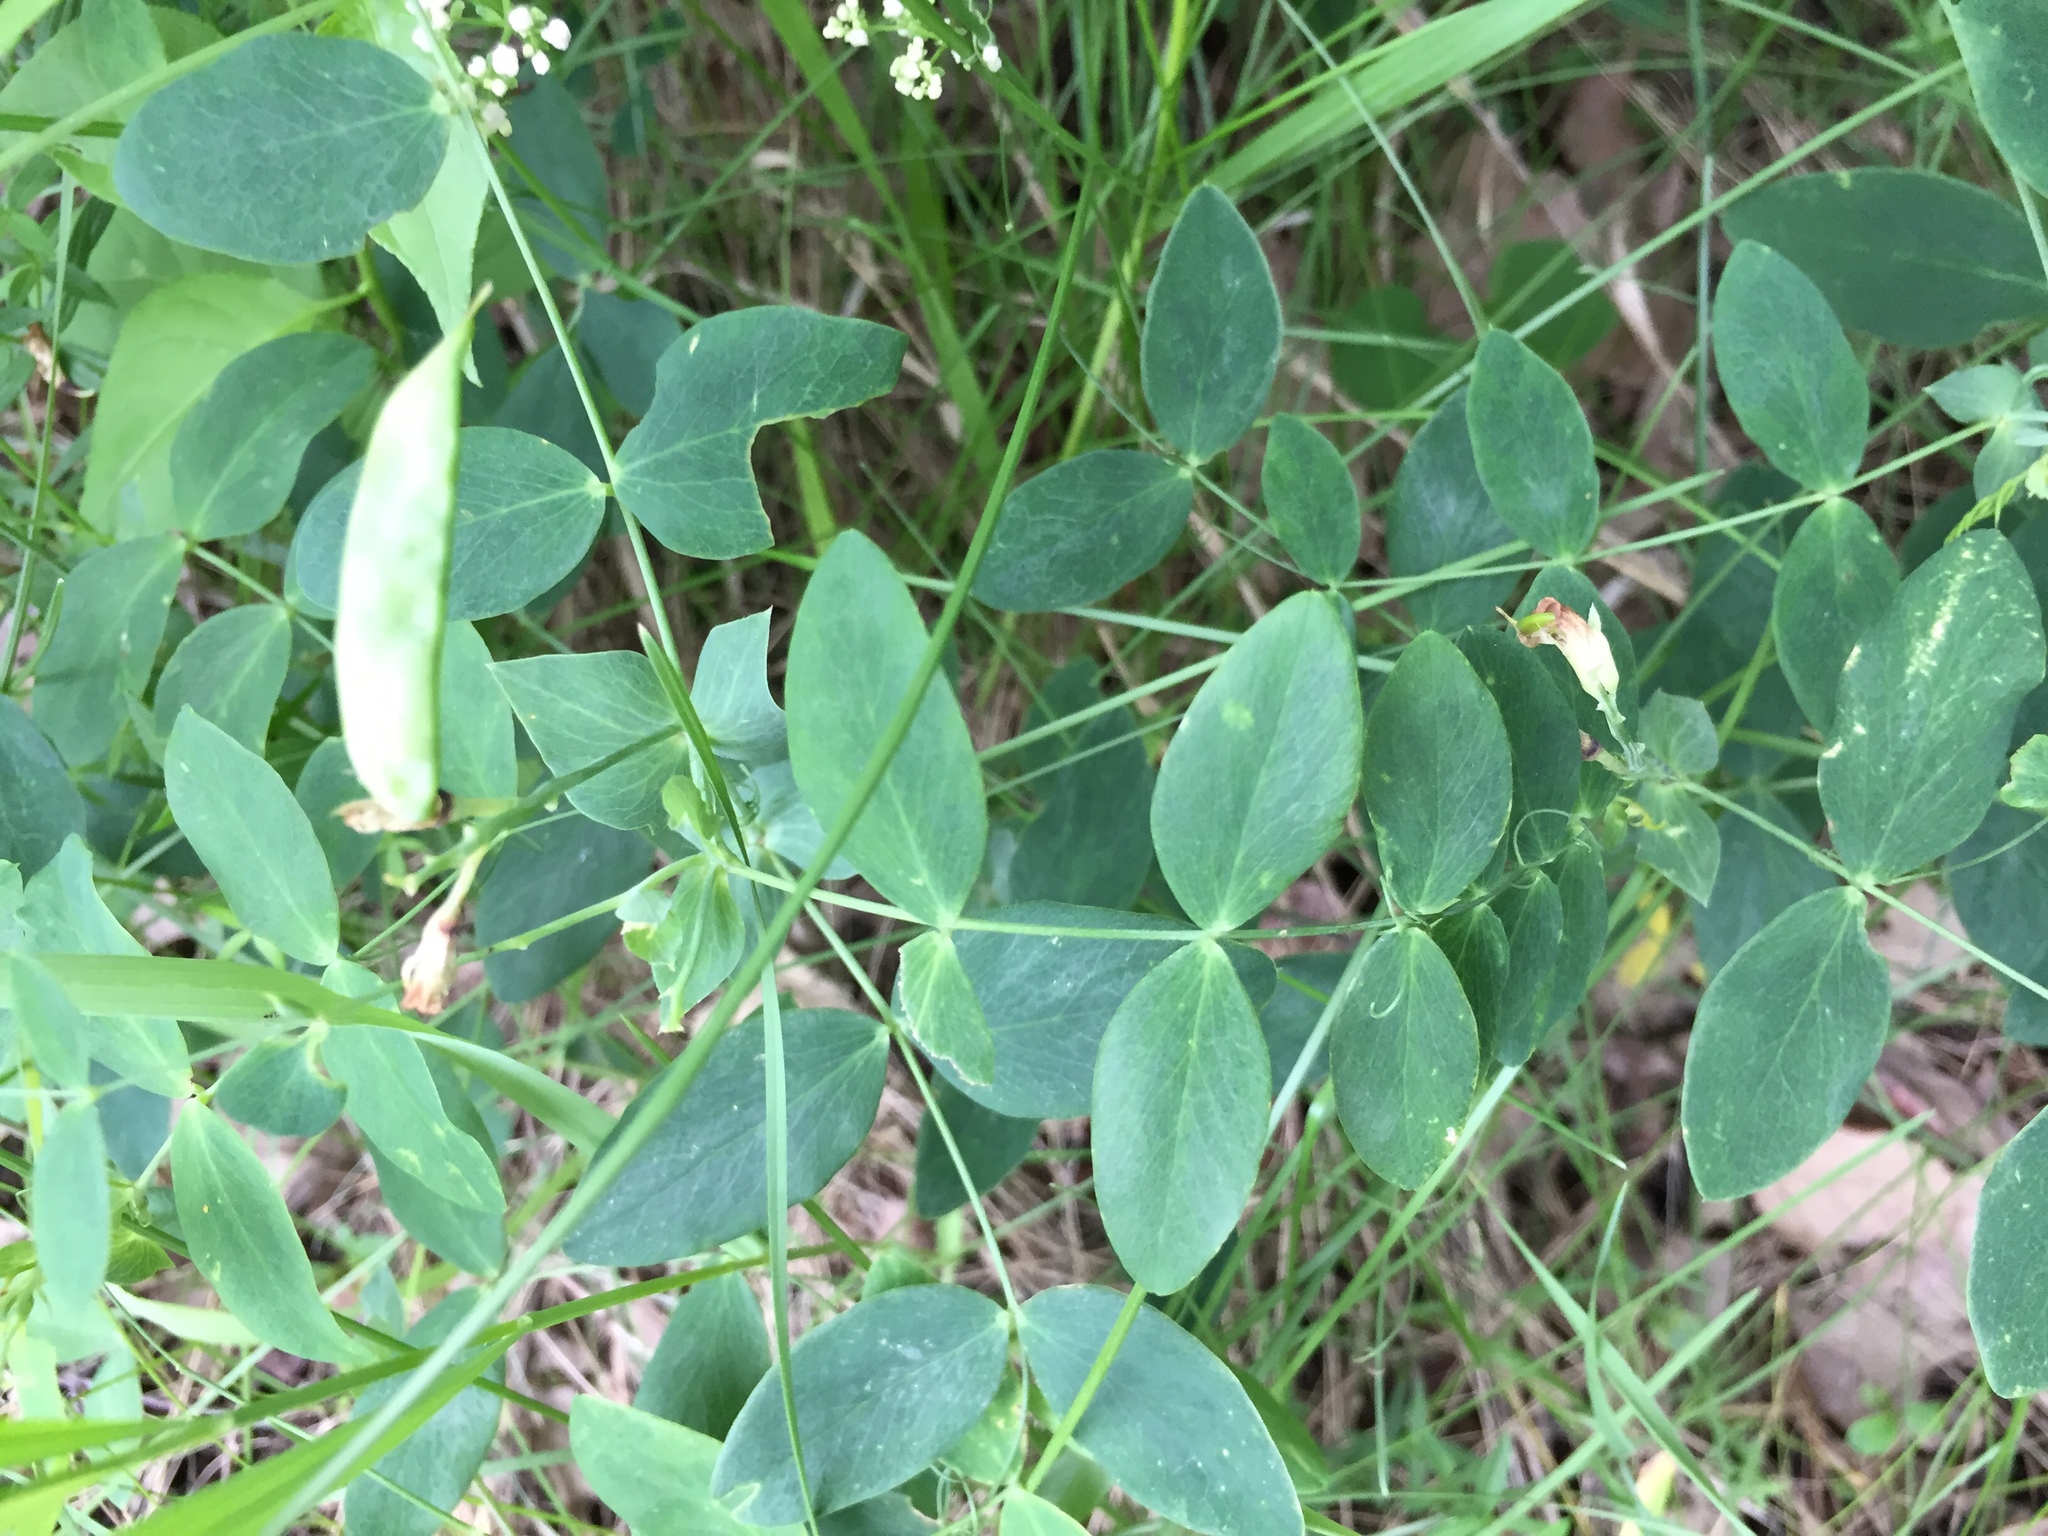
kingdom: Plantae
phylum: Tracheophyta
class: Magnoliopsida
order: Fabales
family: Fabaceae
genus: Lathyrus
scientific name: Lathyrus ochroleucus
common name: Pale vetchling
